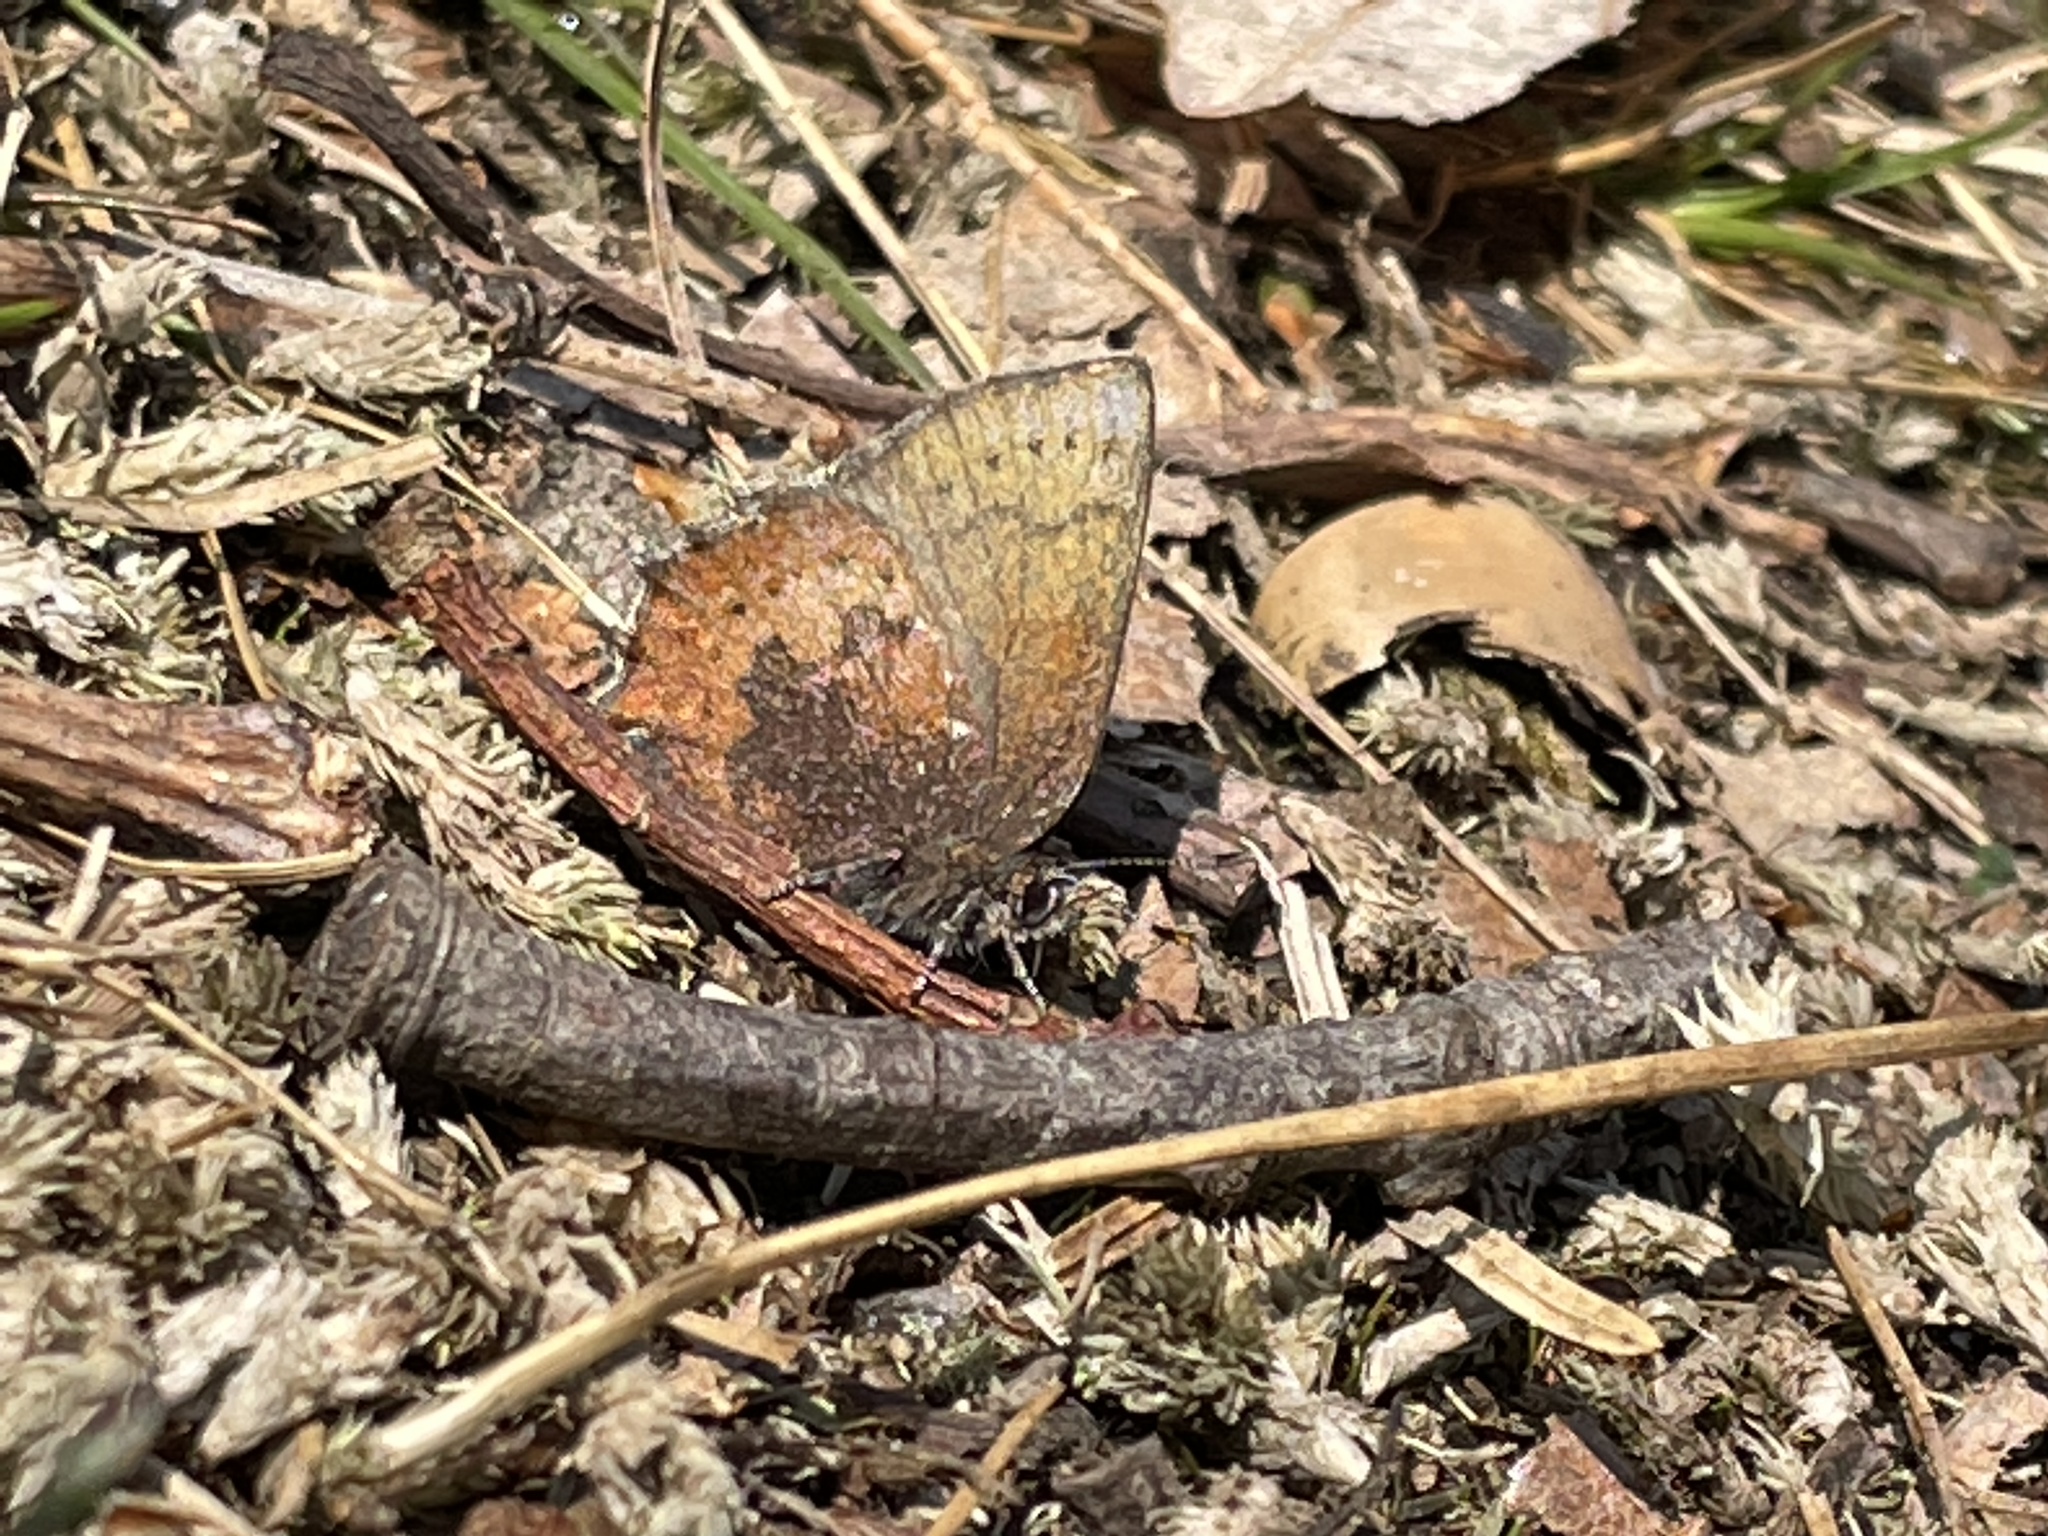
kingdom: Animalia
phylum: Arthropoda
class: Insecta
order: Lepidoptera
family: Lycaenidae
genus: Incisalia
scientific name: Incisalia irioides
